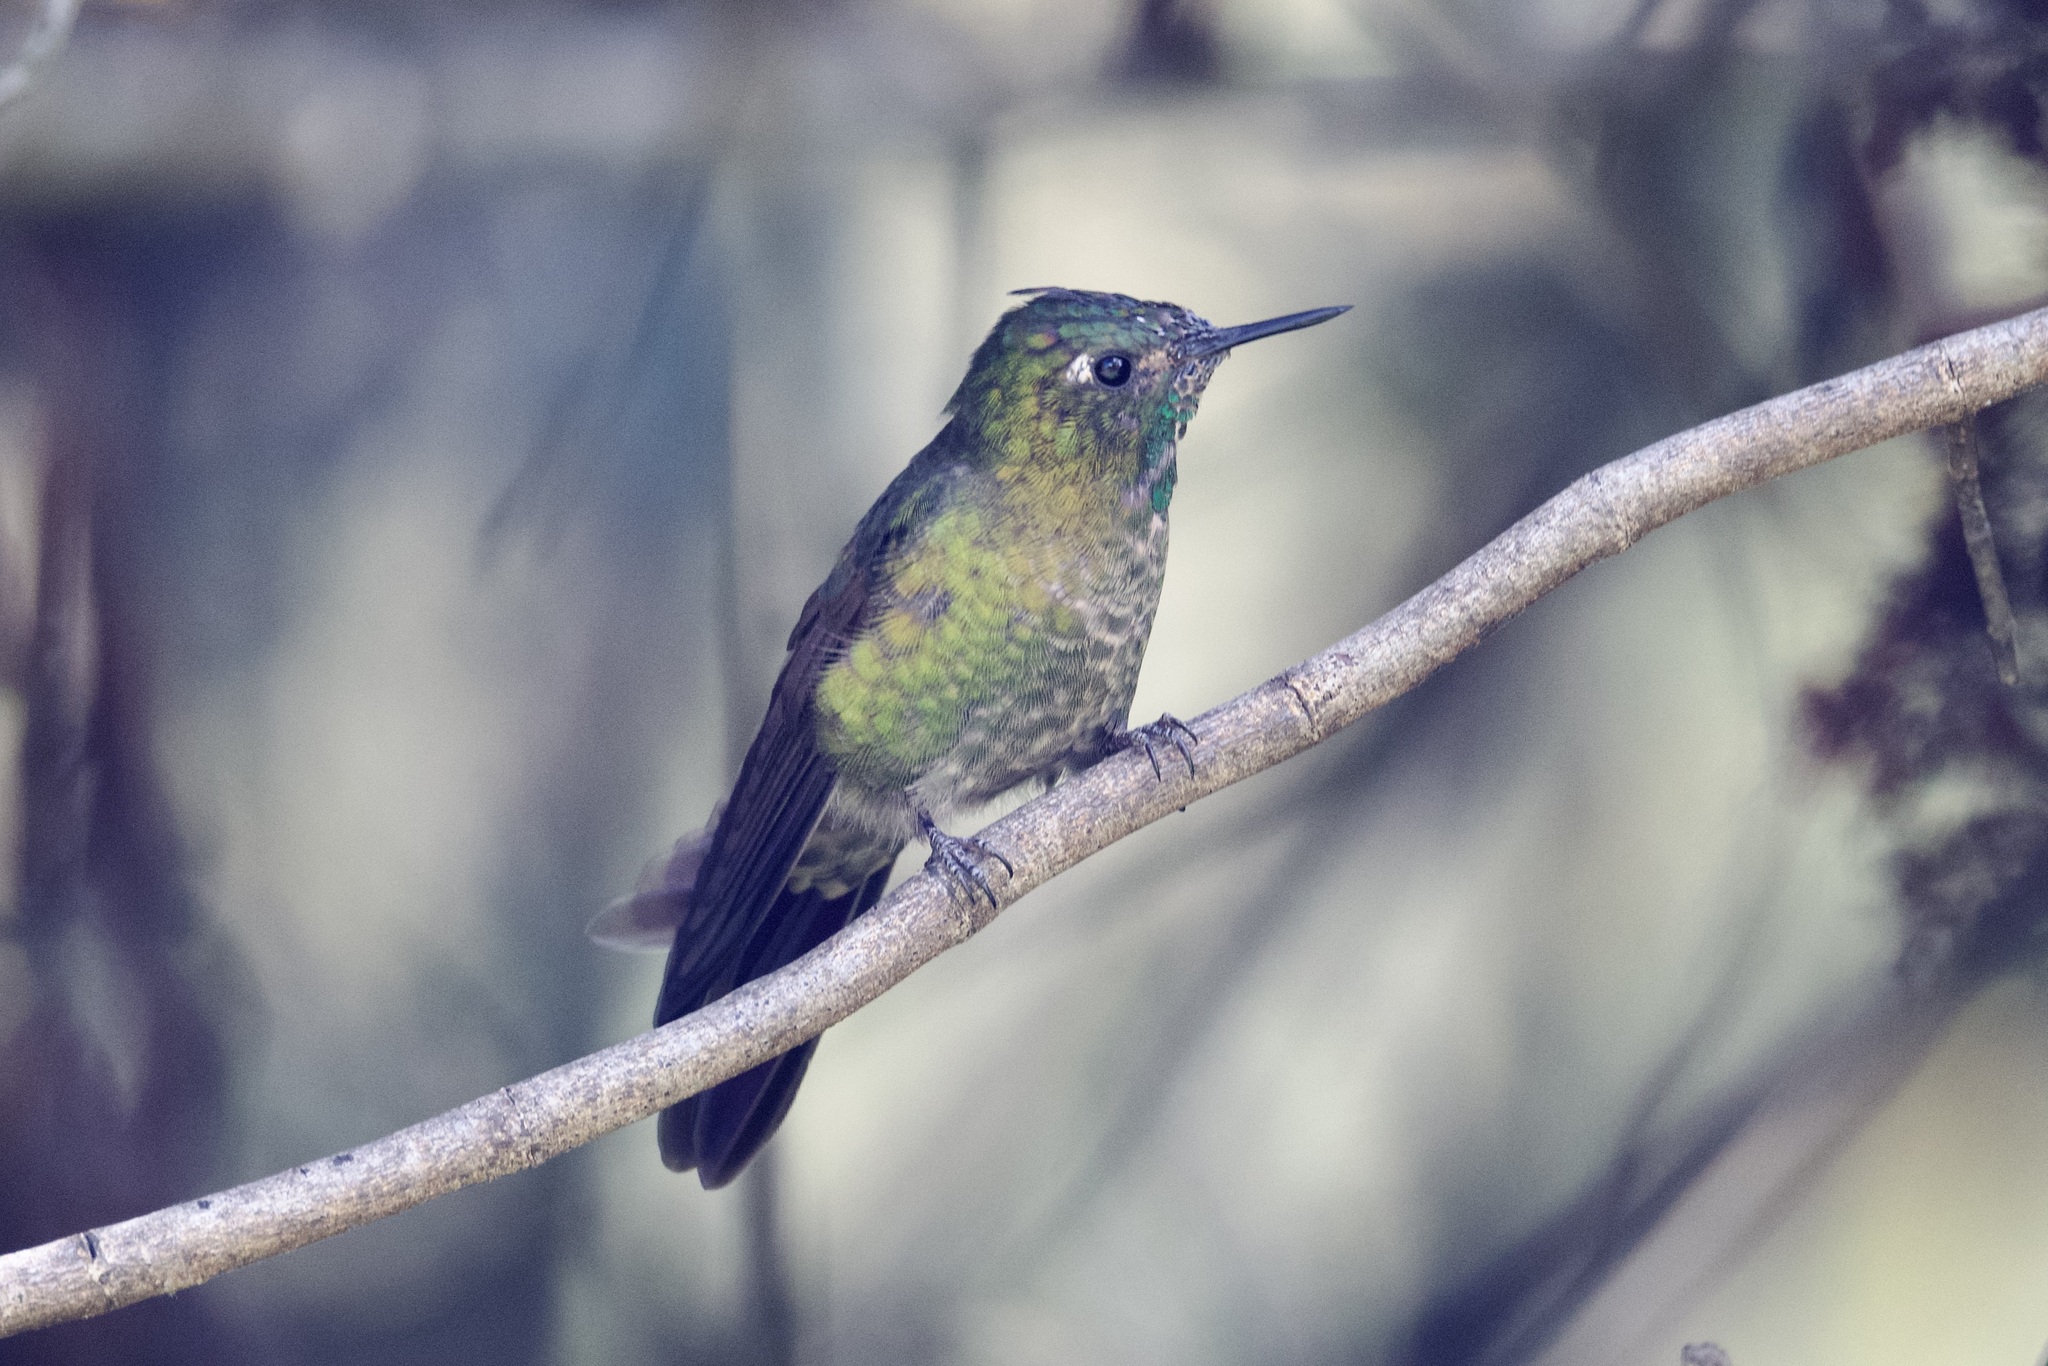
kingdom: Animalia
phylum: Chordata
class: Aves
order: Apodiformes
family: Trochilidae
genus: Metallura
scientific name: Metallura tyrianthina
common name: Tyrian metaltail
